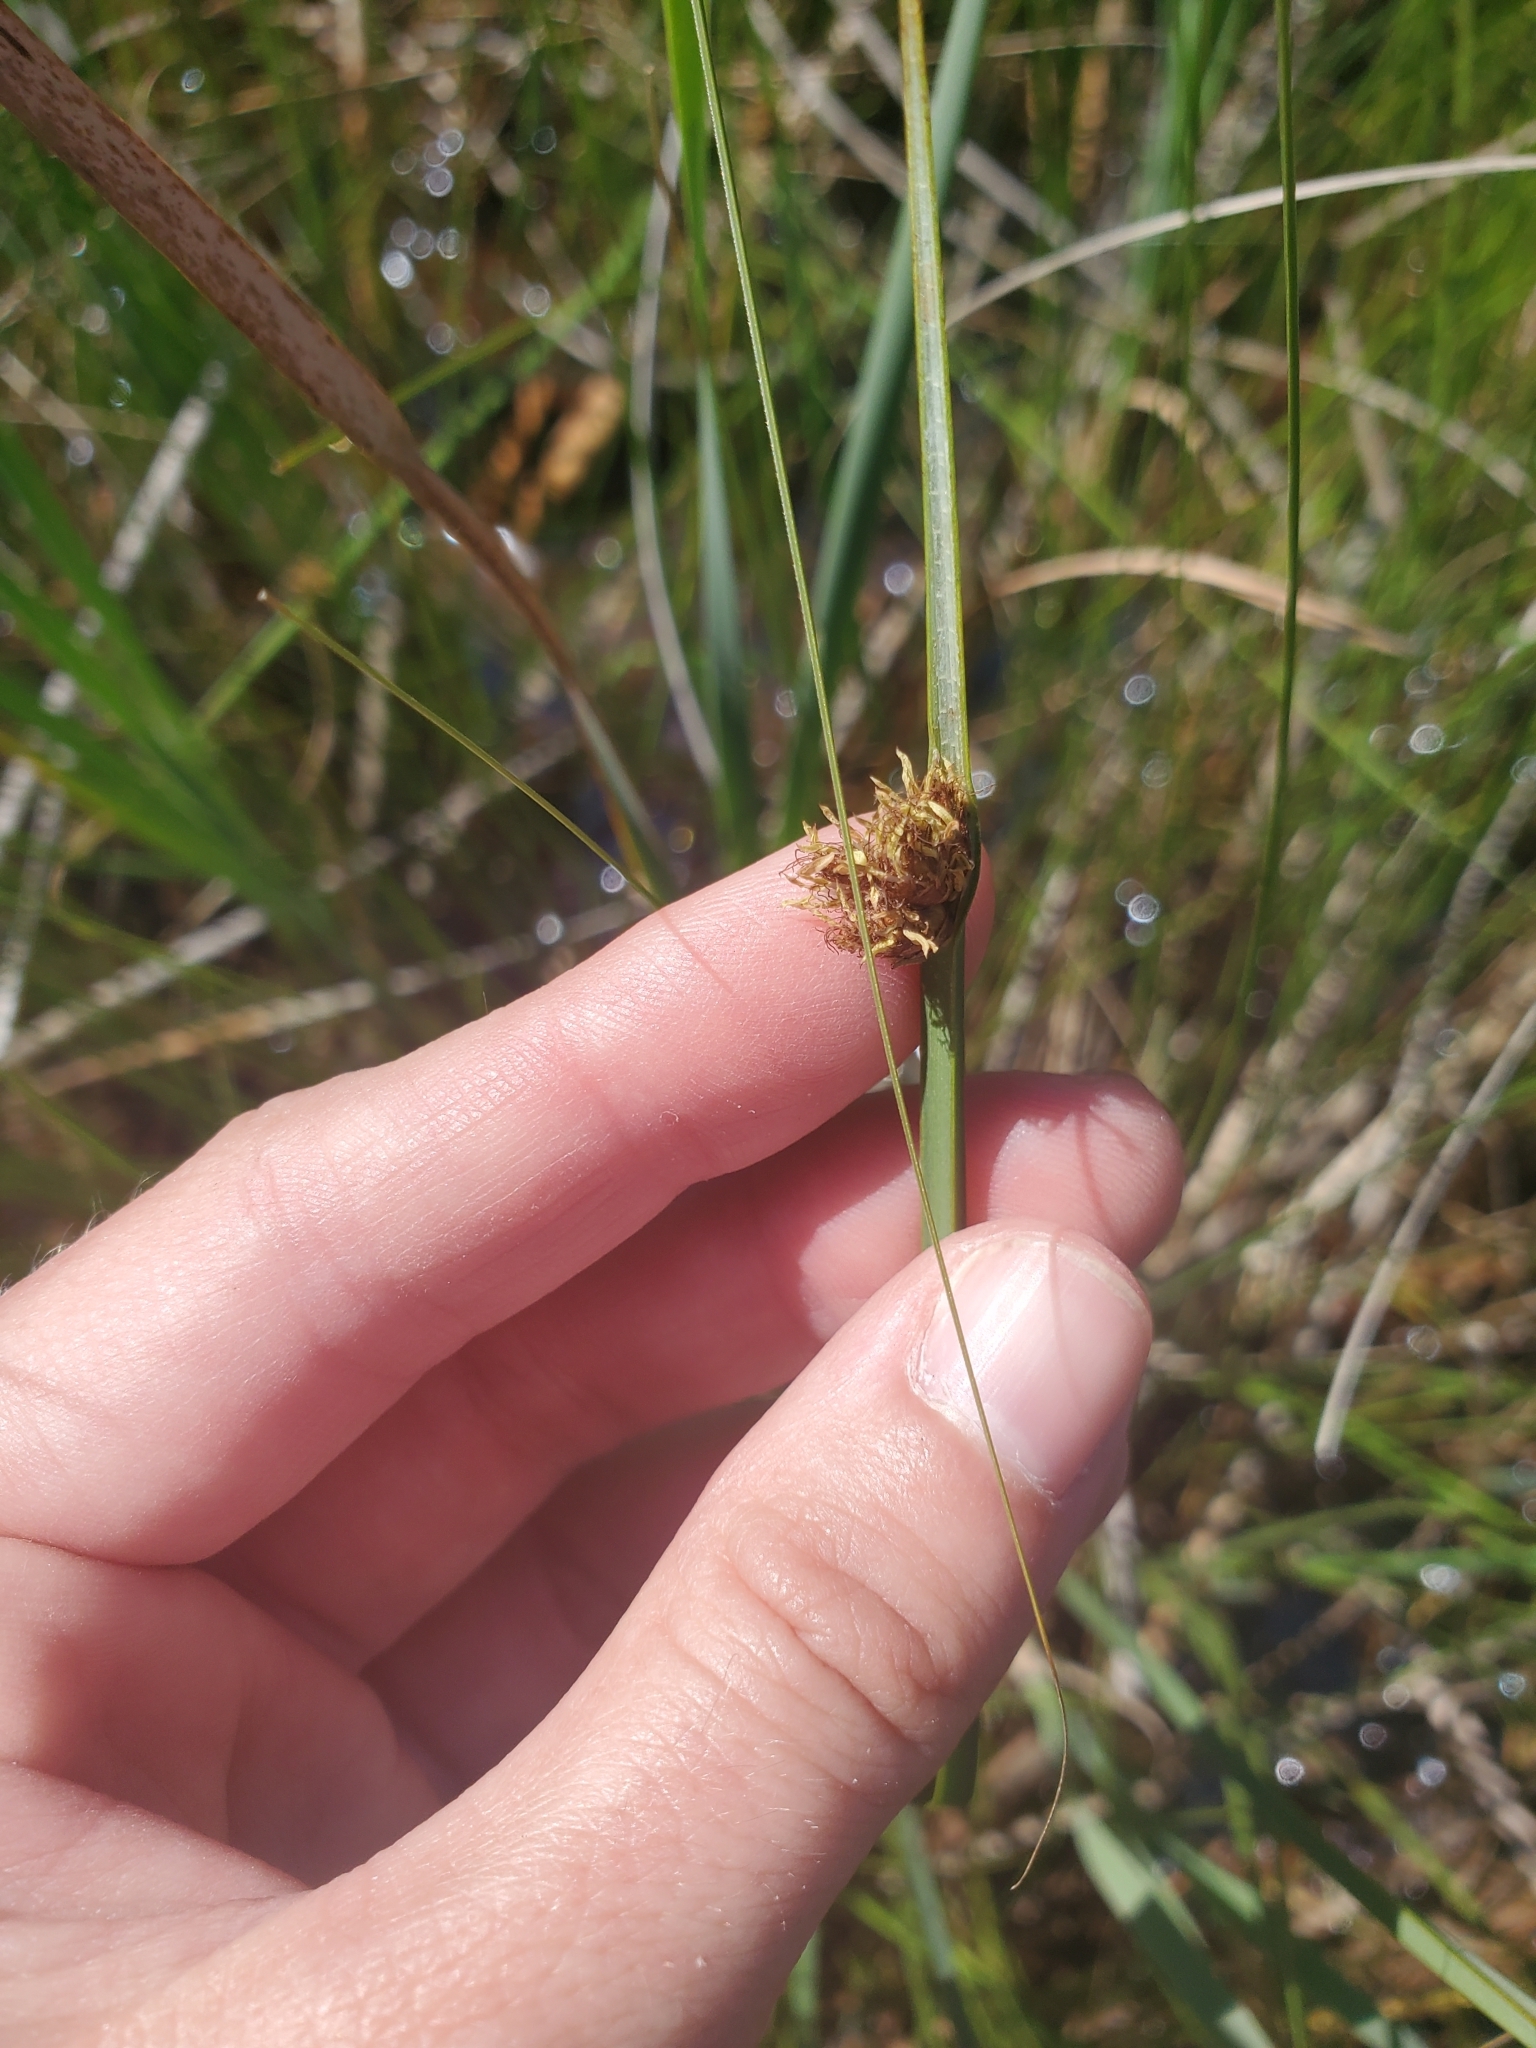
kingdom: Plantae
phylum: Tracheophyta
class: Liliopsida
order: Poales
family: Cyperaceae
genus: Schoenoplectus
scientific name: Schoenoplectus pungens
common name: Sharp club-rush
